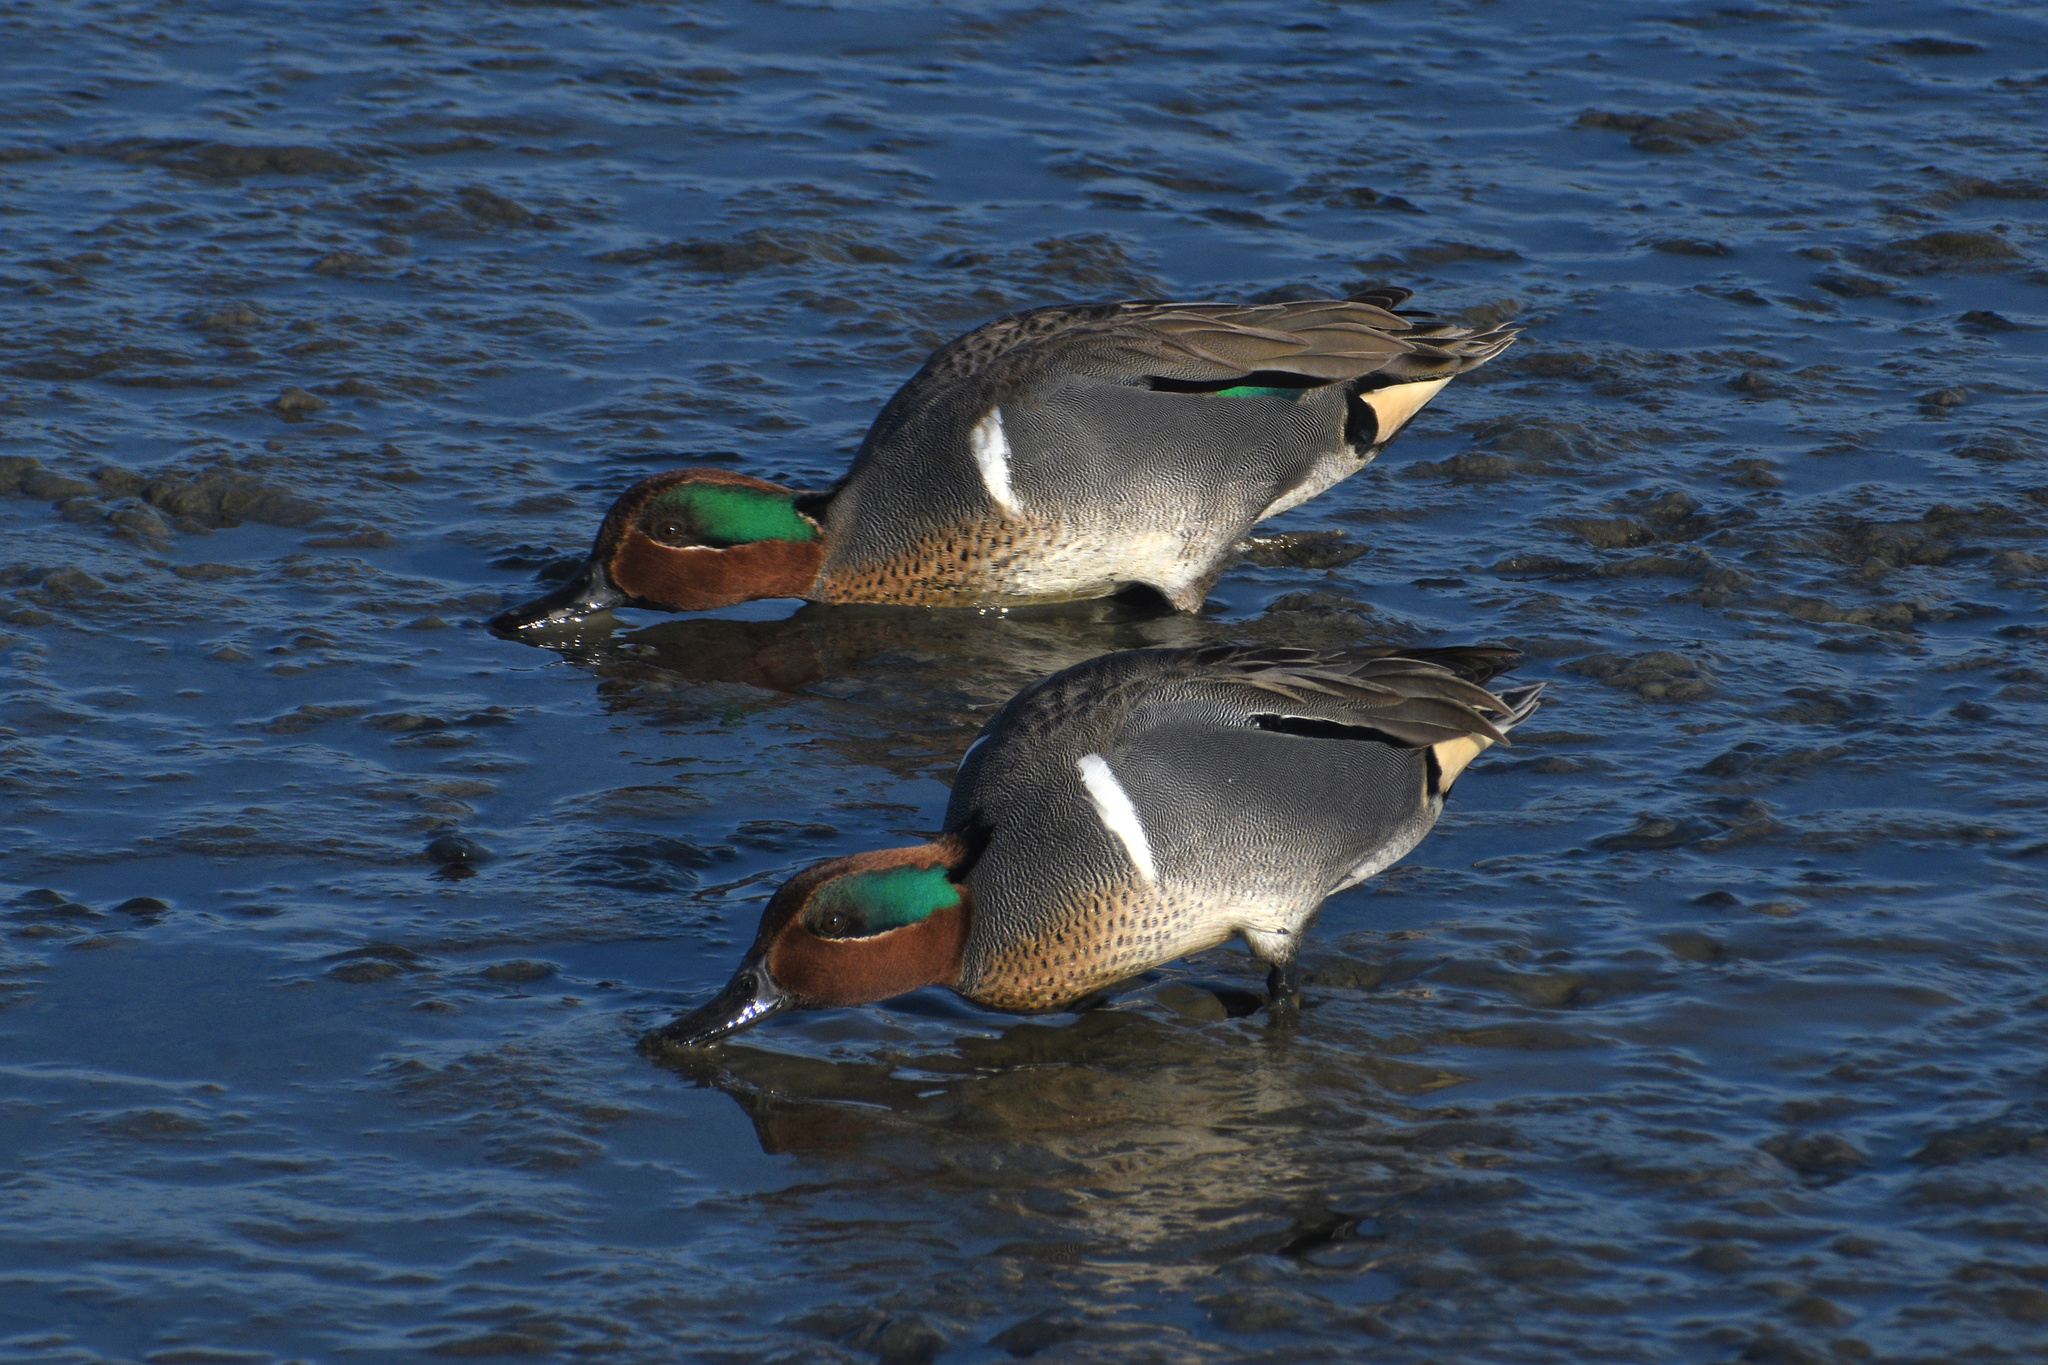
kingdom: Animalia
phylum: Chordata
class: Aves
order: Anseriformes
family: Anatidae
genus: Anas
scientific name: Anas crecca
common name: Eurasian teal
